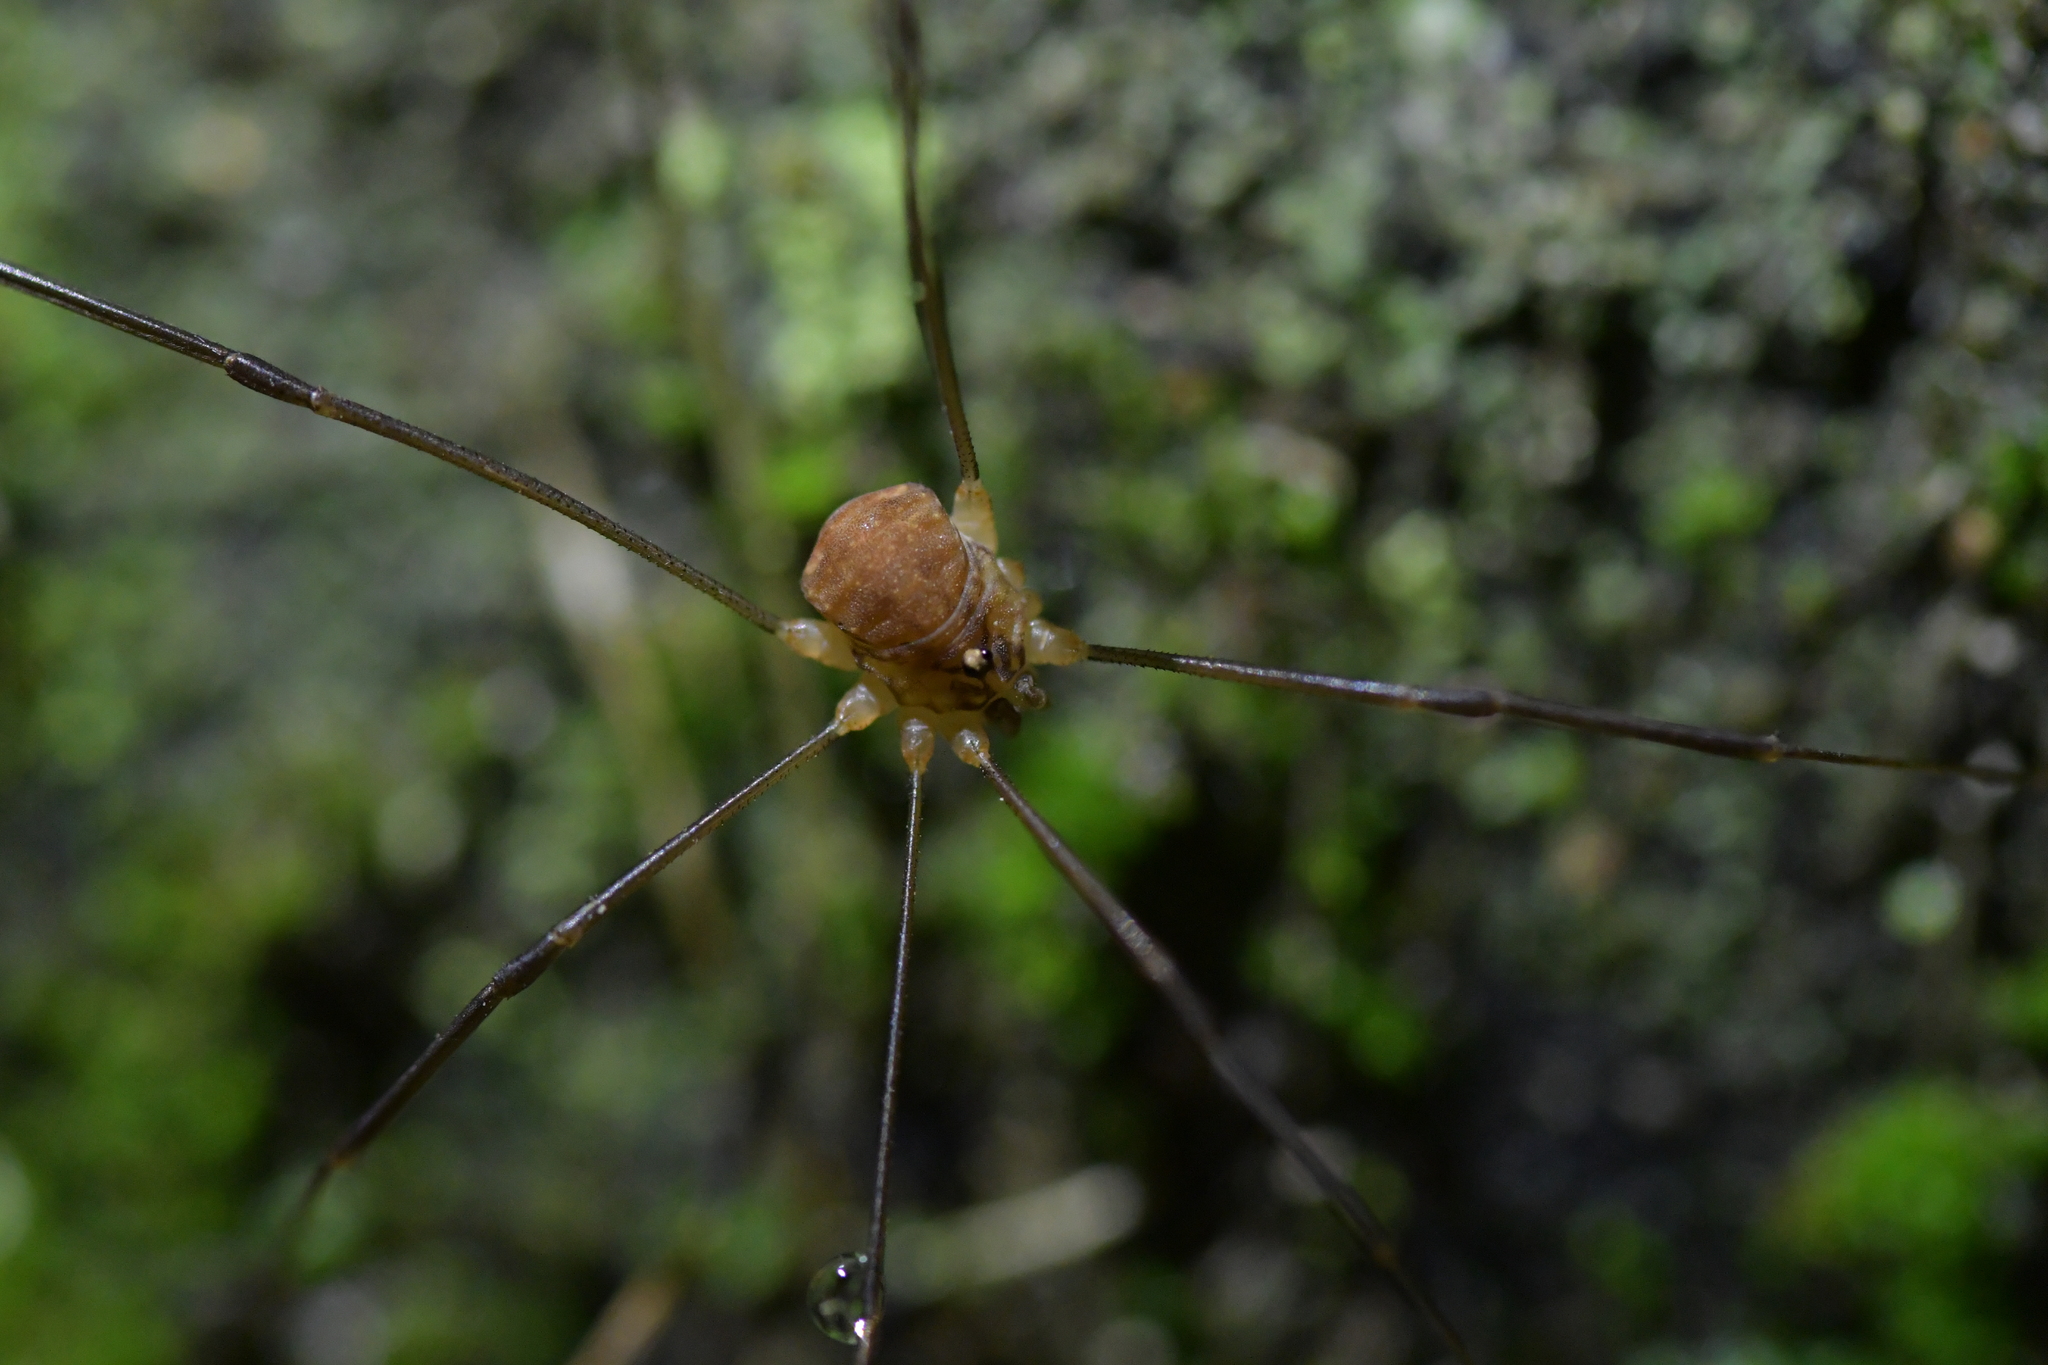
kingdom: Animalia
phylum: Arthropoda
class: Arachnida
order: Opiliones
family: Sclerosomatidae
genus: Nelima
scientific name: Nelima doriae
